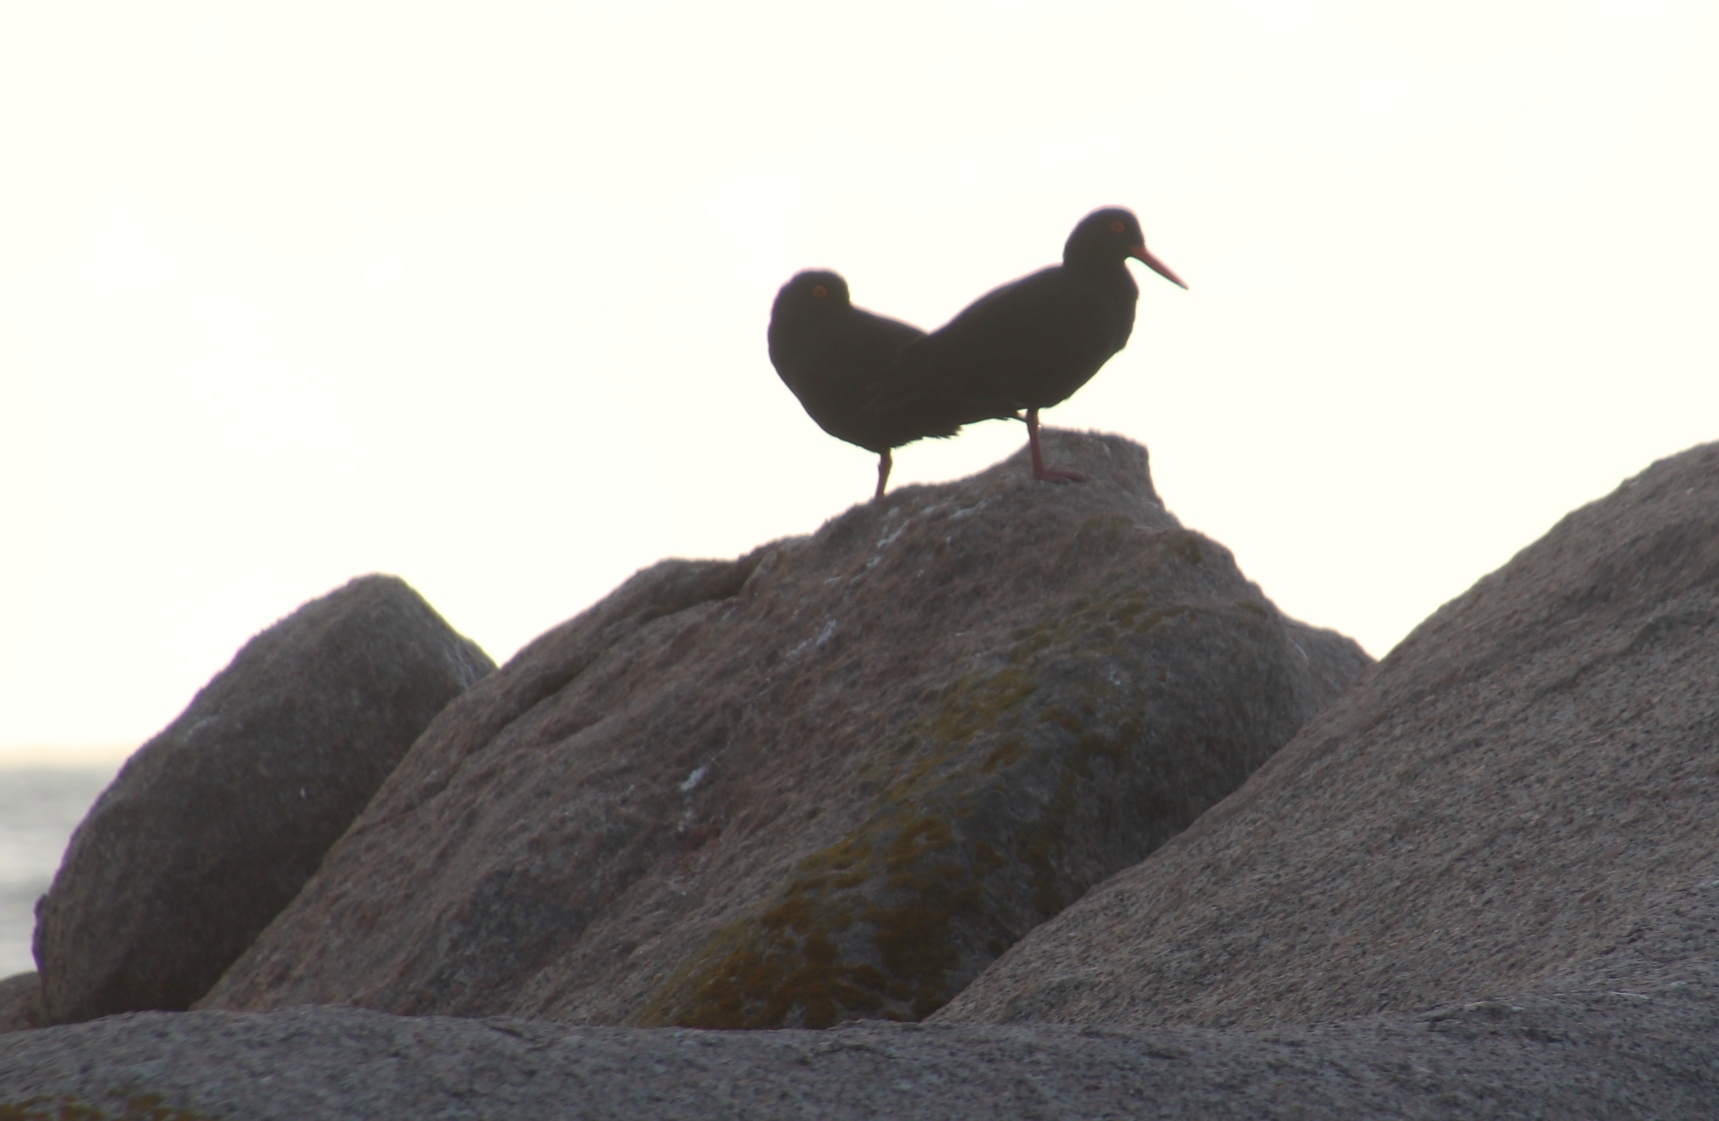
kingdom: Animalia
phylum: Chordata
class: Aves
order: Charadriiformes
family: Haematopodidae
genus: Haematopus
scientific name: Haematopus moquini
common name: African oystercatcher
